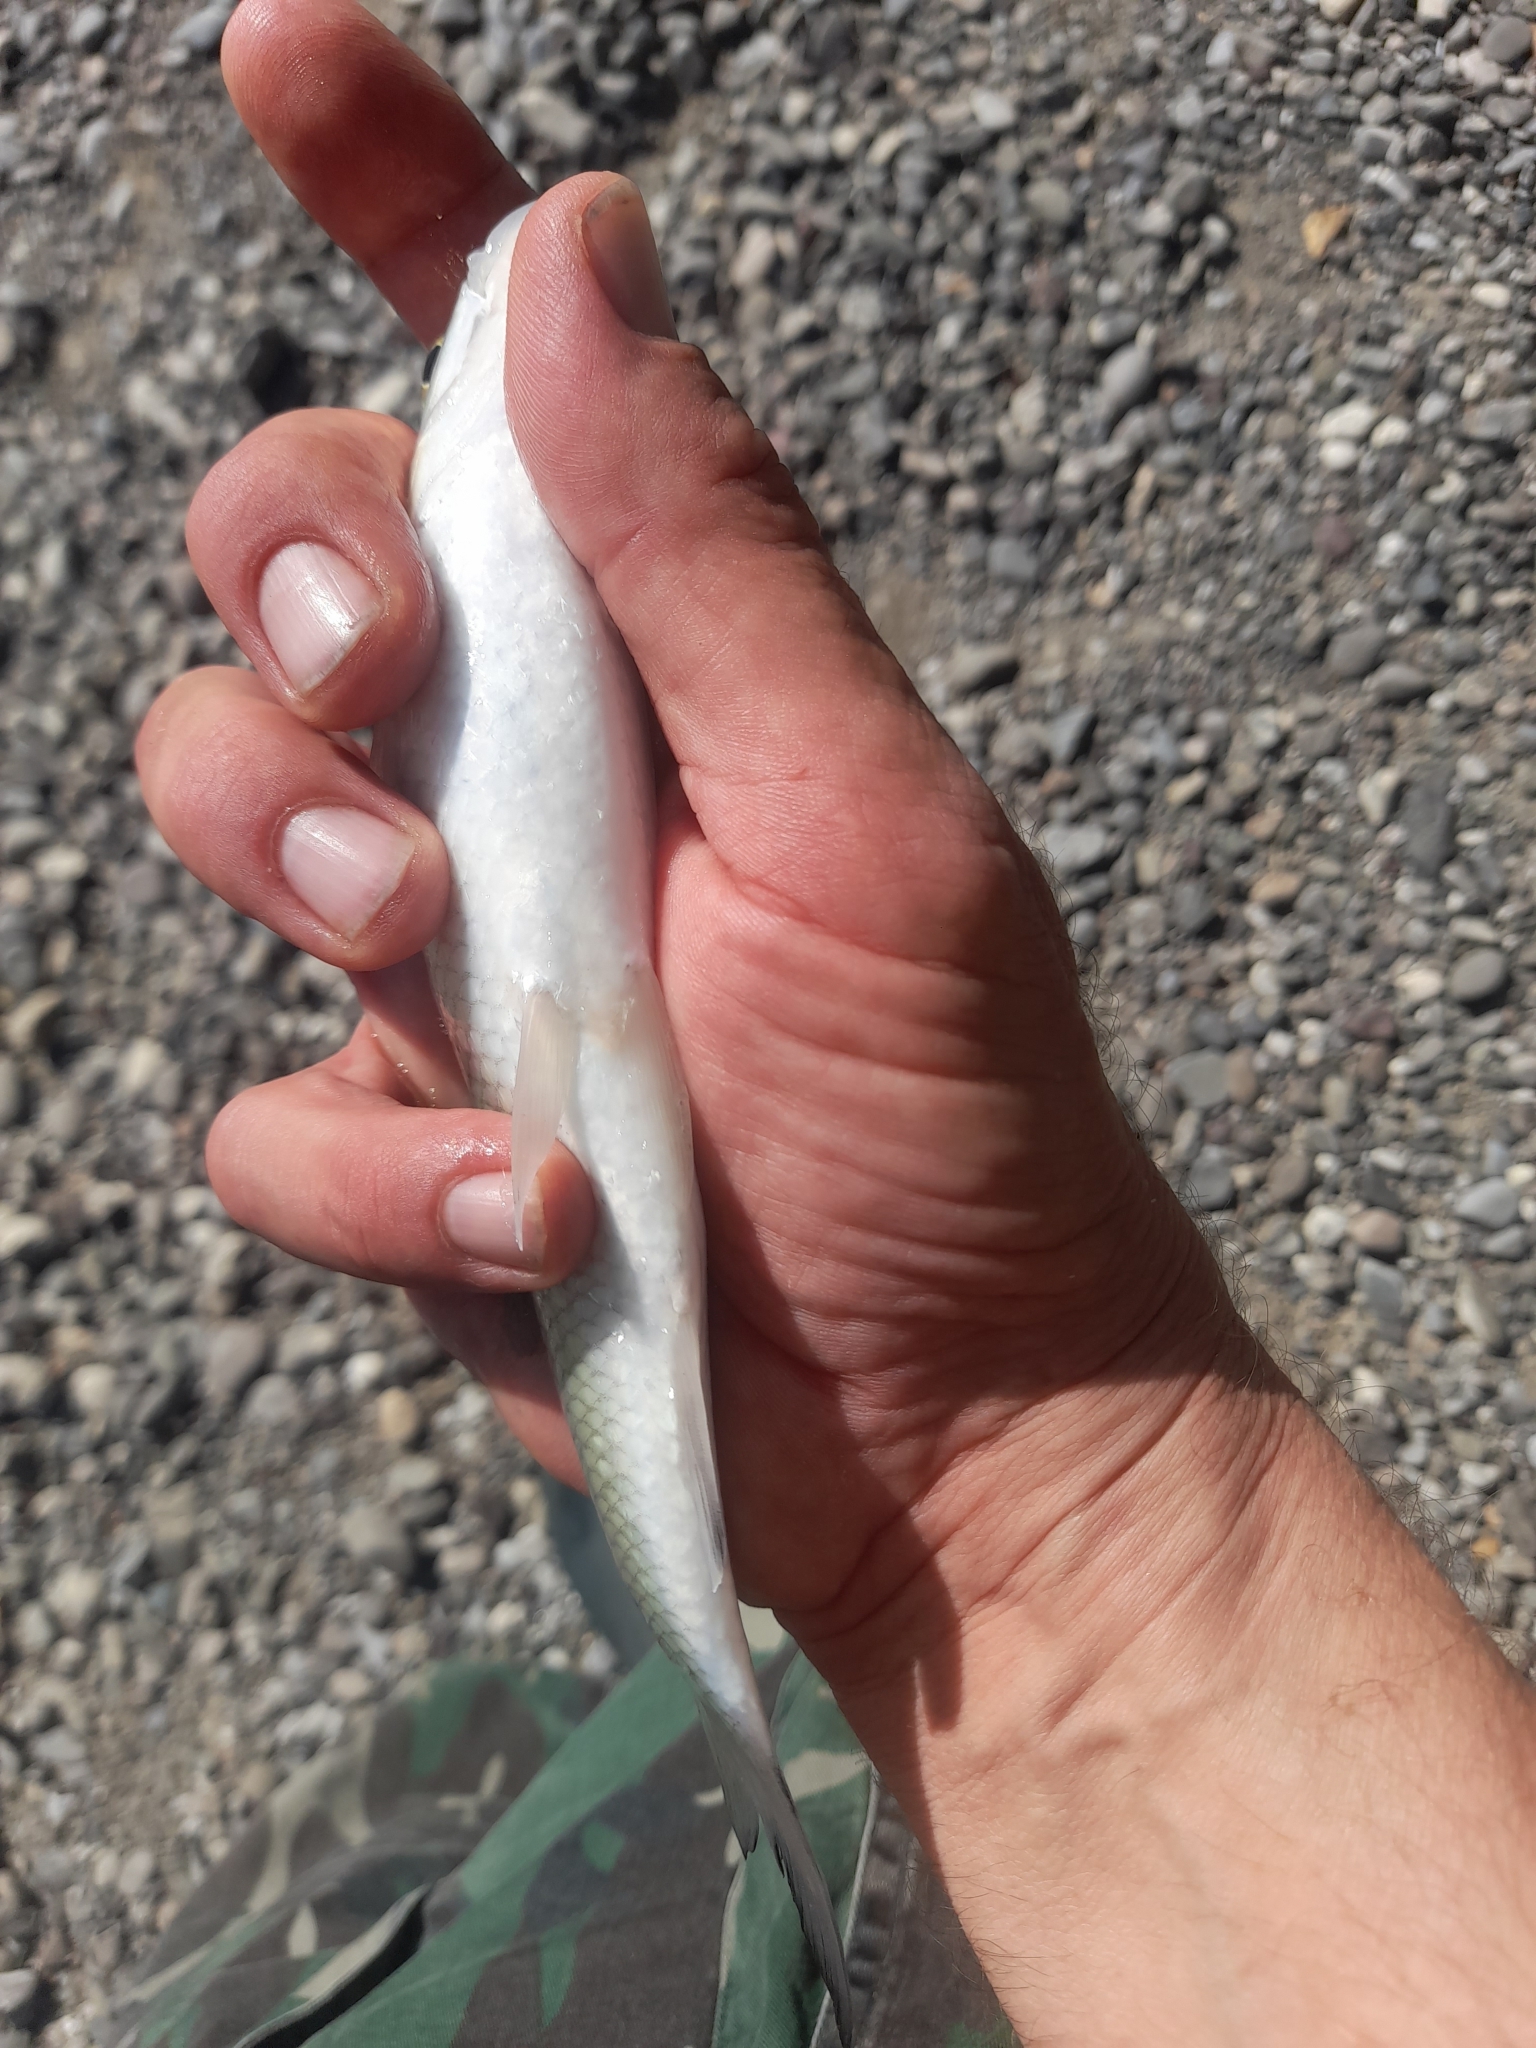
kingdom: Animalia
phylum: Chordata
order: Cypriniformes
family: Cyprinidae
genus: Squalius
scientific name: Squalius squalus
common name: Italian chub
